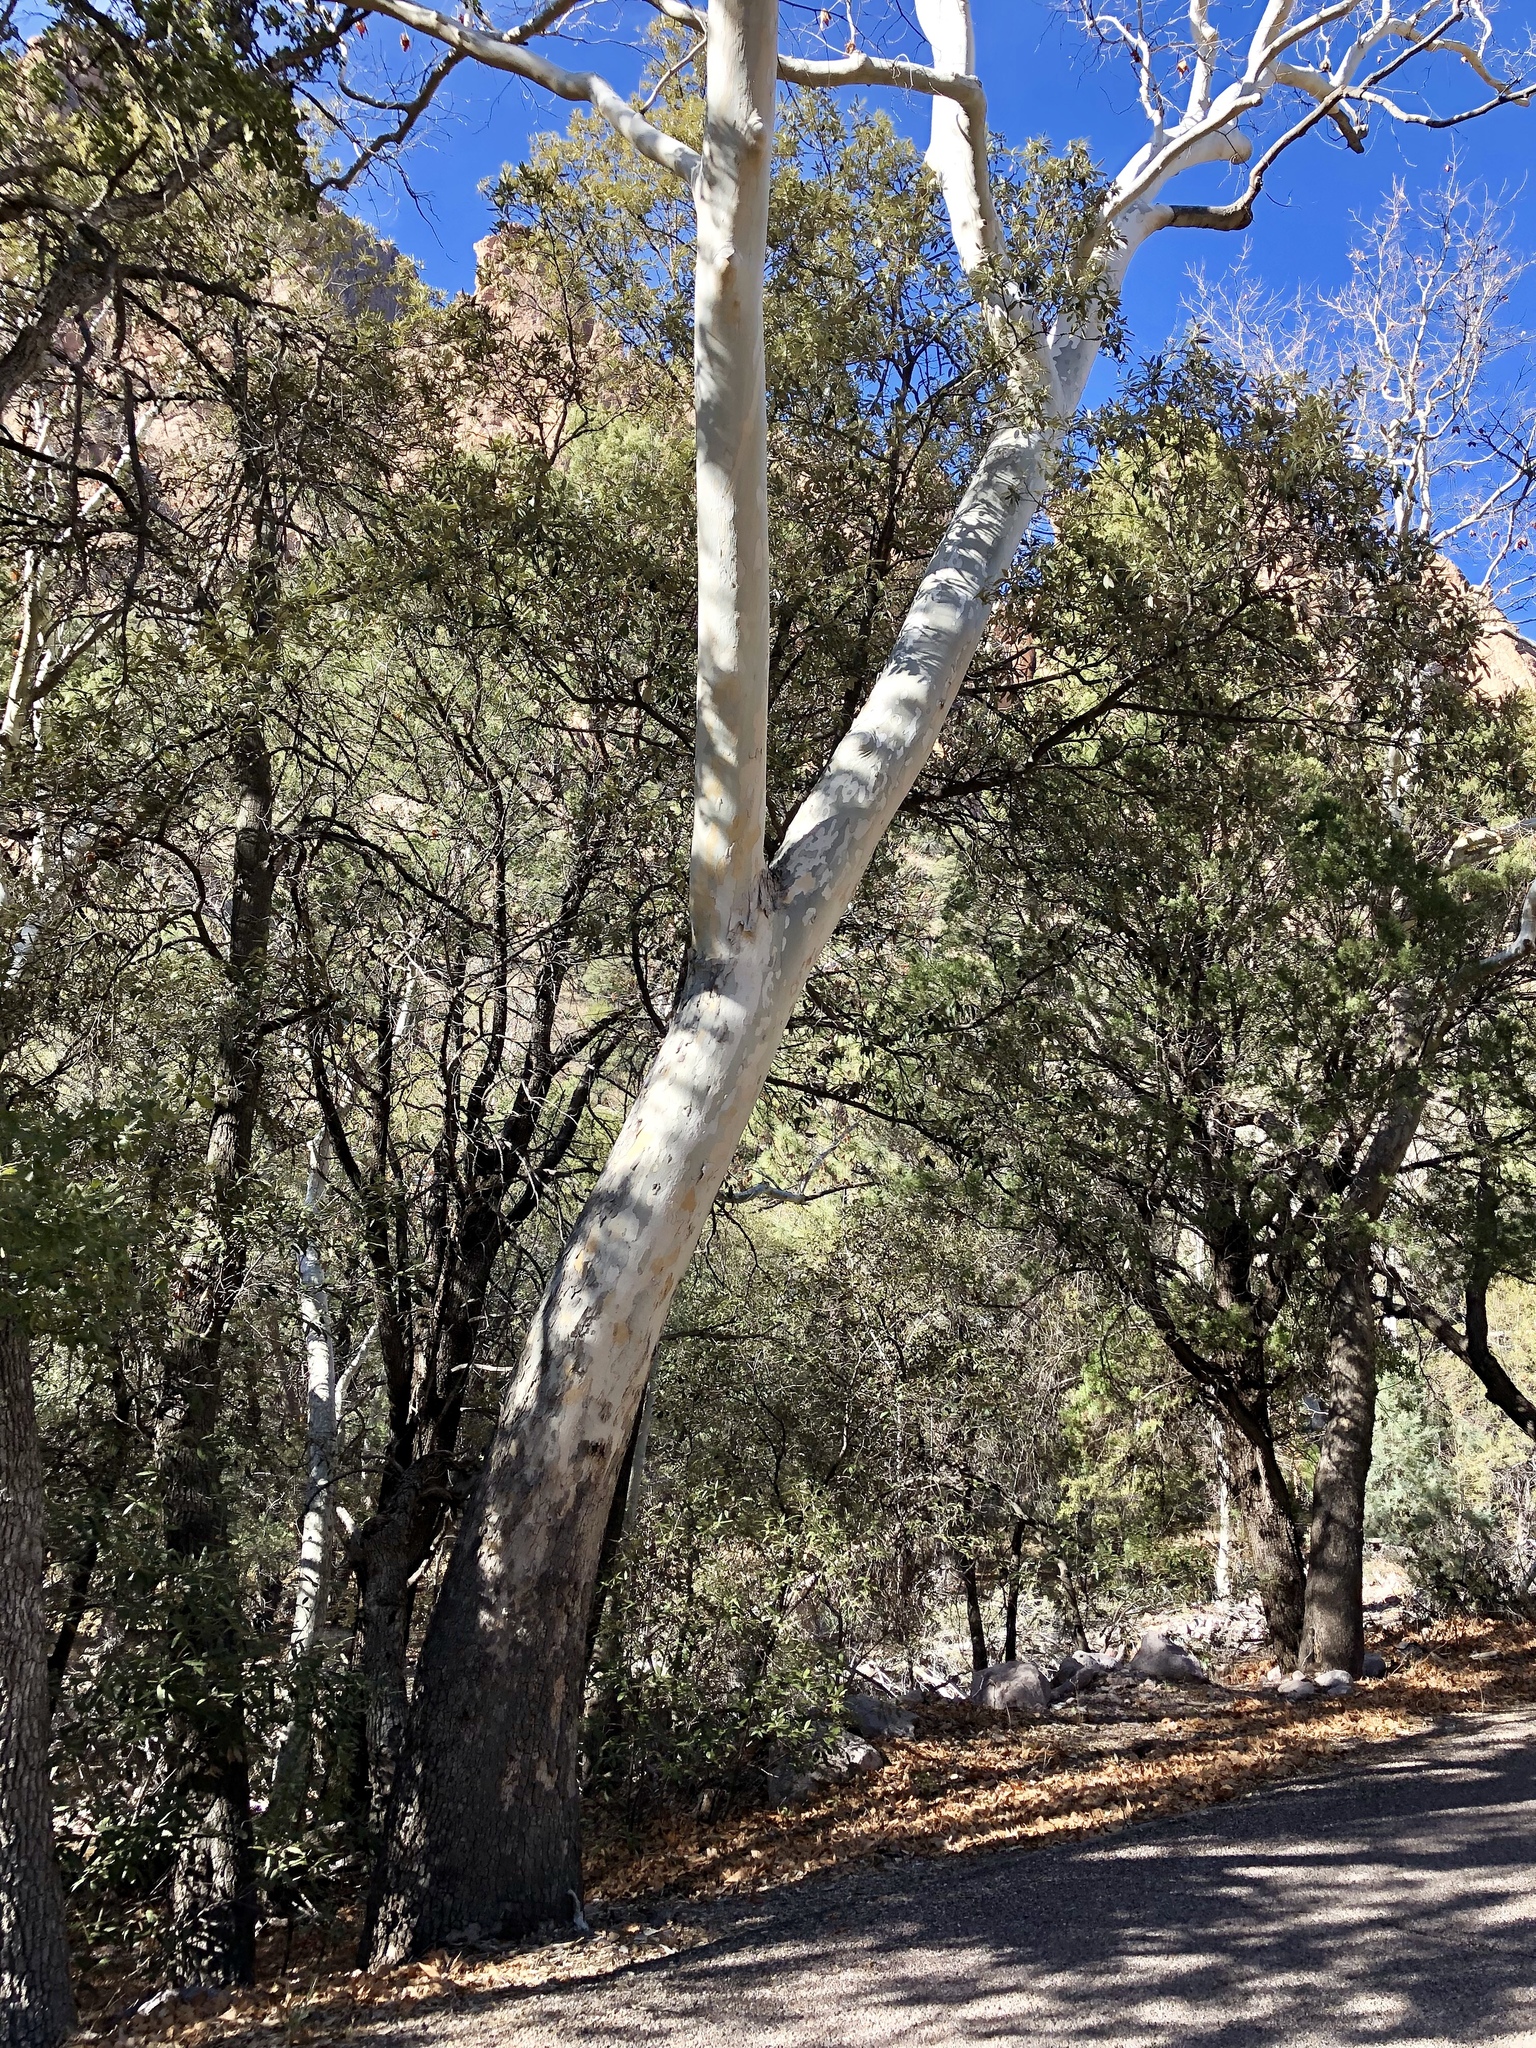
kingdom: Plantae
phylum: Tracheophyta
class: Magnoliopsida
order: Proteales
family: Platanaceae
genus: Platanus
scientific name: Platanus wrightii
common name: Arizona sycamore
